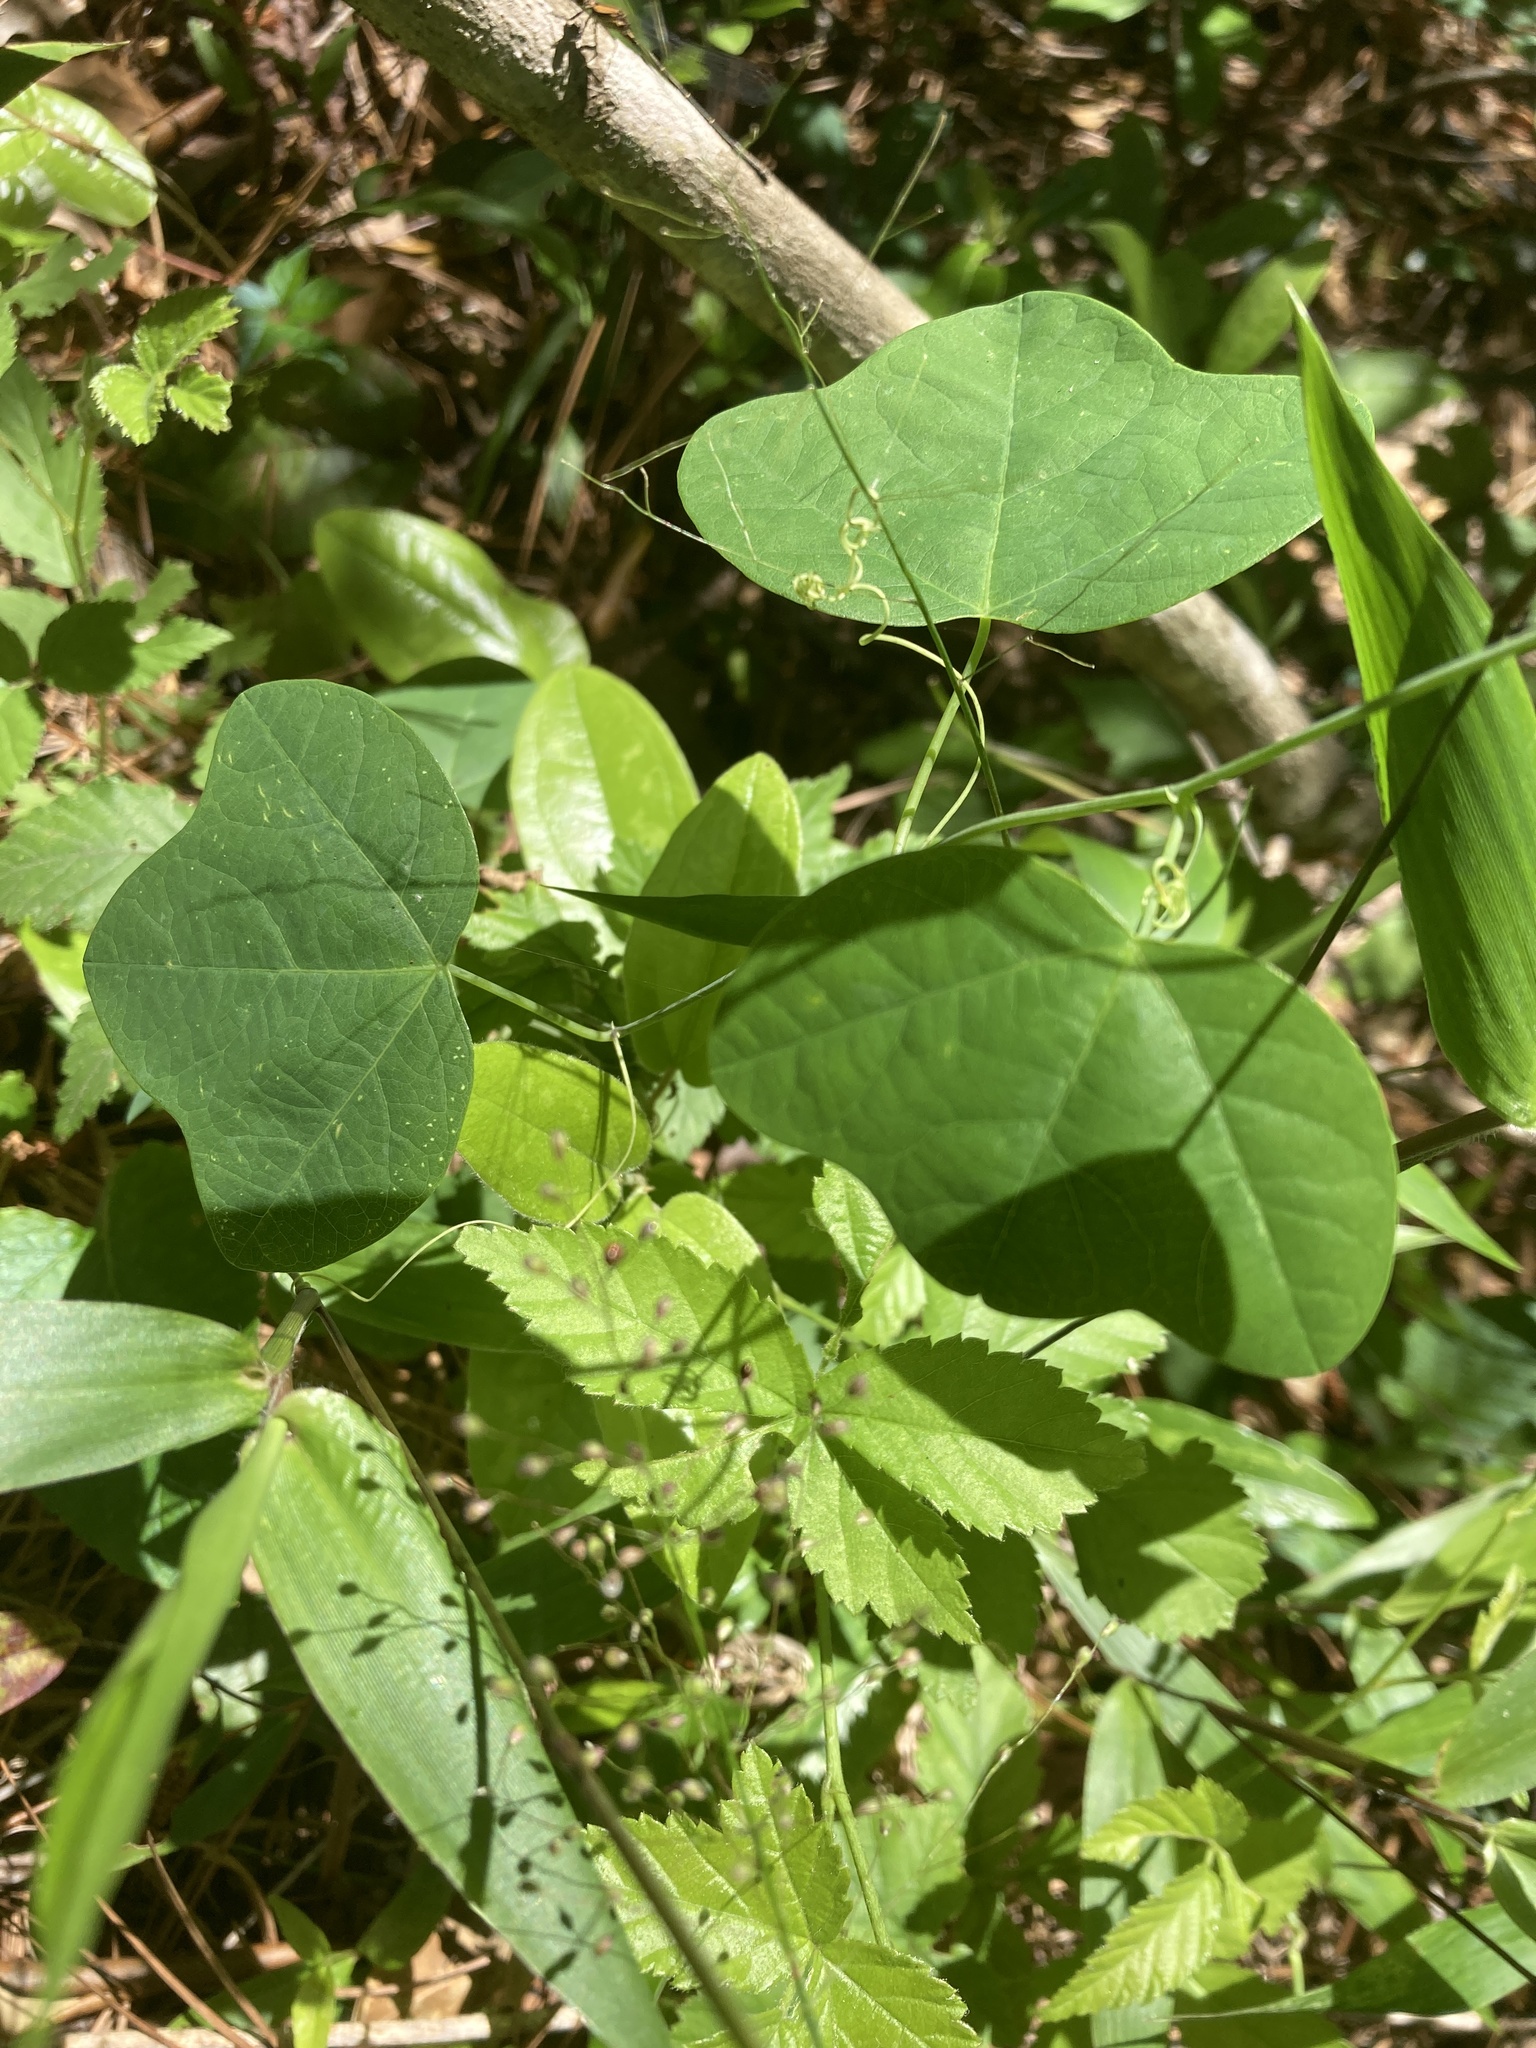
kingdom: Plantae
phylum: Tracheophyta
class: Magnoliopsida
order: Malpighiales
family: Passifloraceae
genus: Passiflora
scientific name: Passiflora lutea
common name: Yellow passionflower
